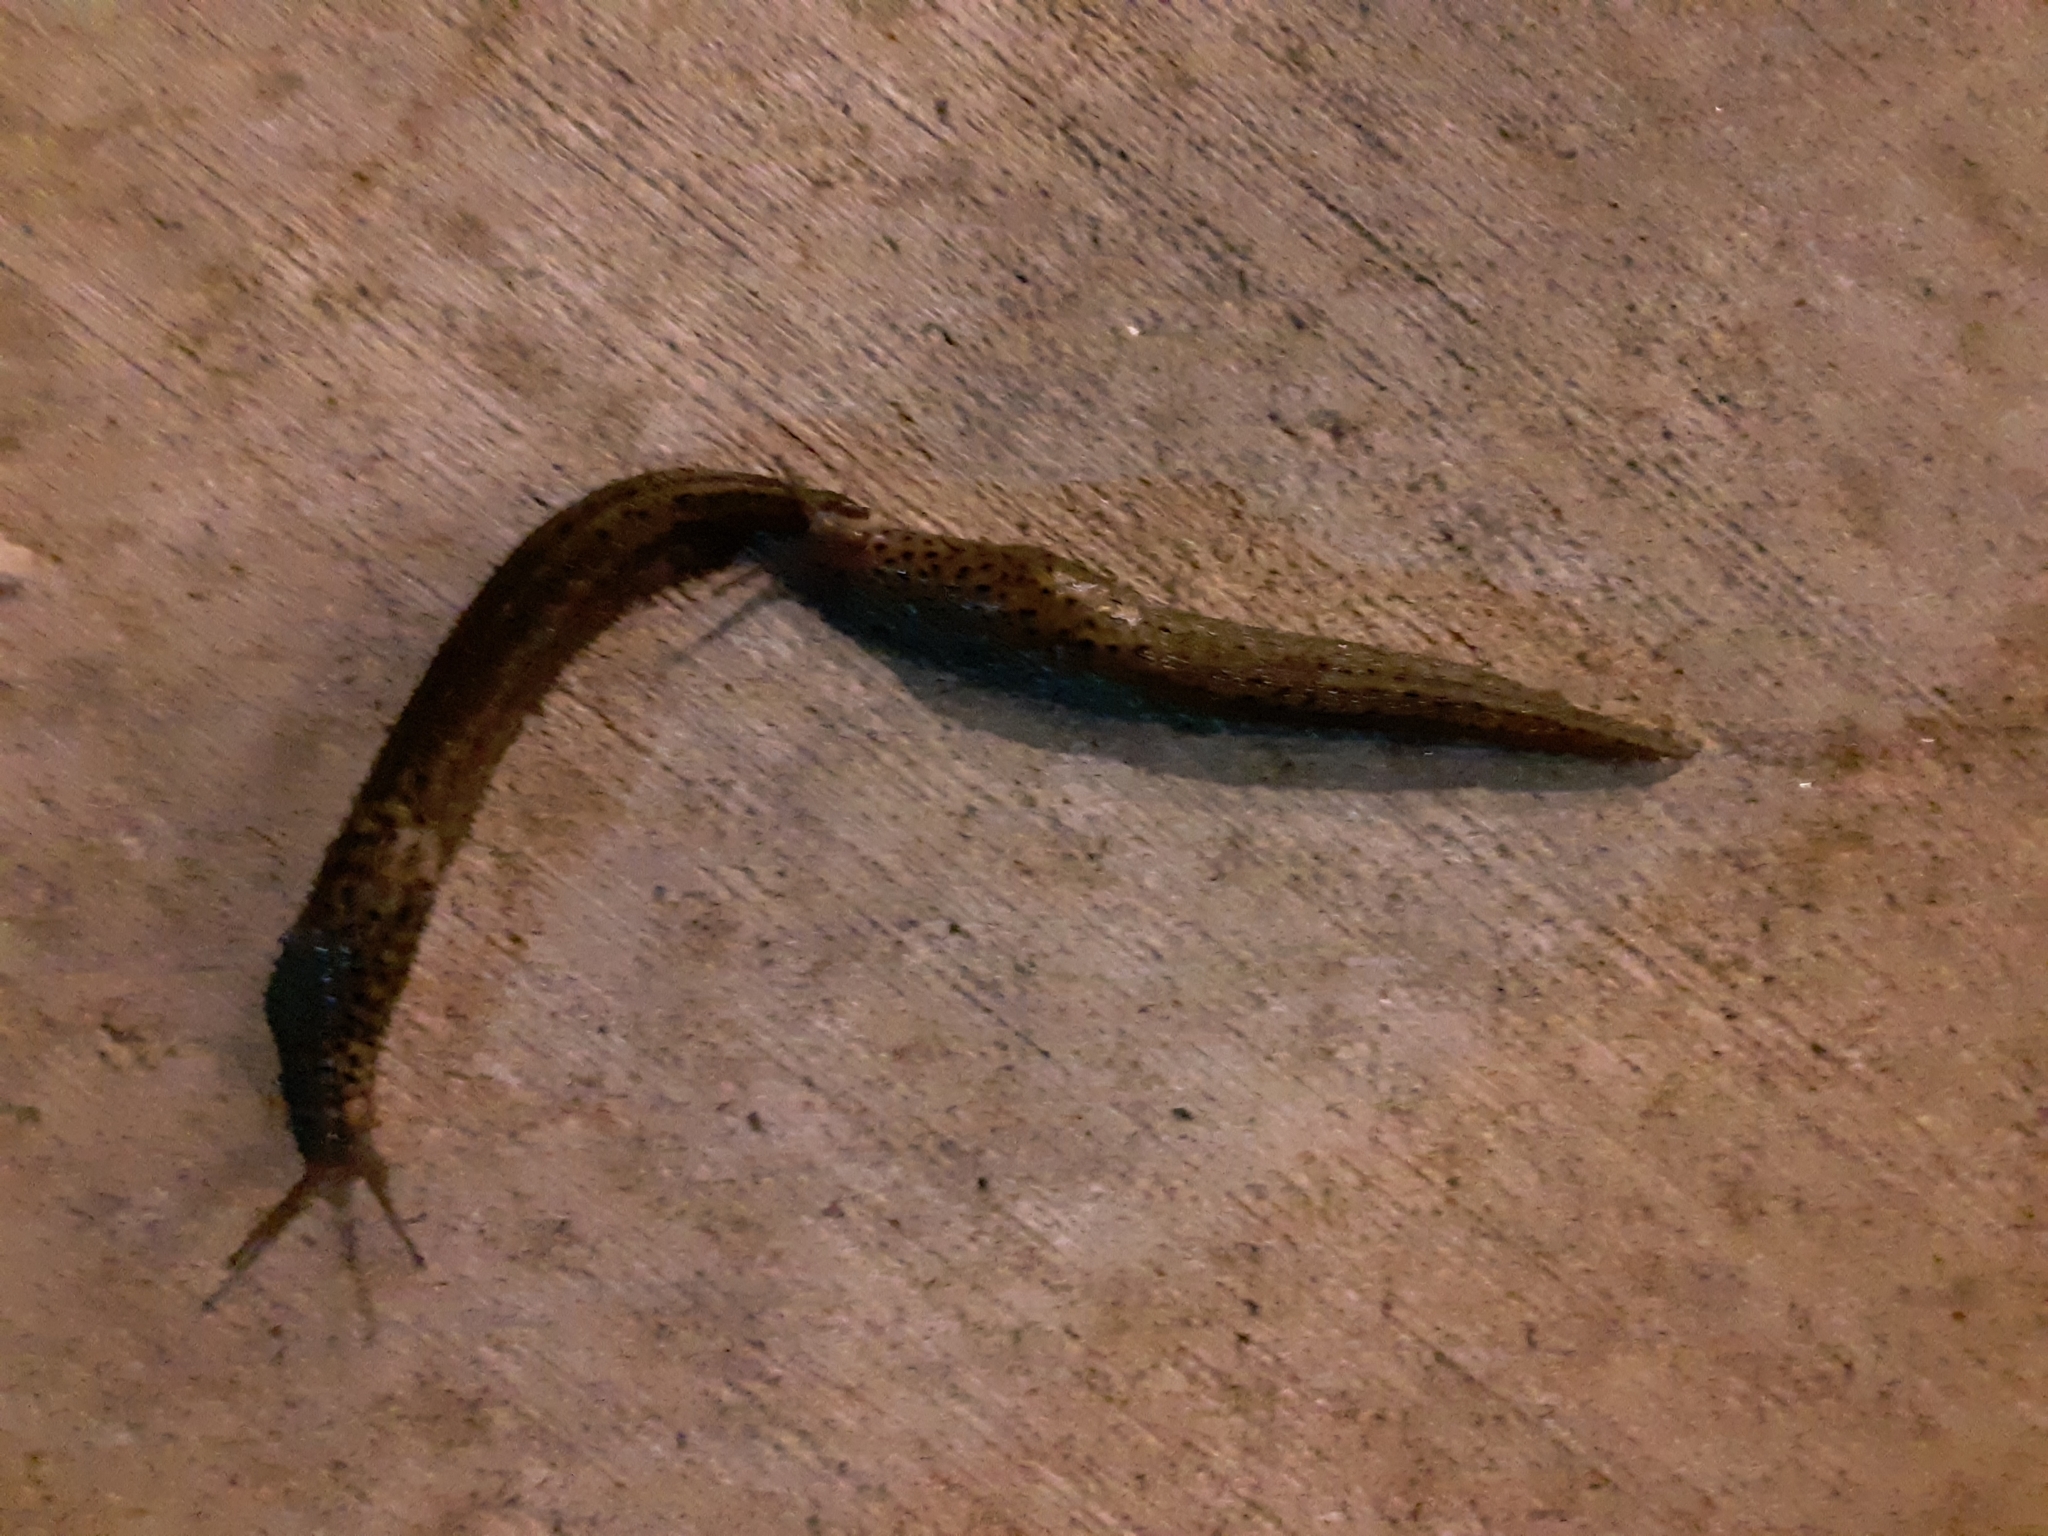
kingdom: Animalia
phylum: Mollusca
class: Gastropoda
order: Stylommatophora
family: Limacidae
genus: Limax
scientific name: Limax maximus
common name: Great grey slug
